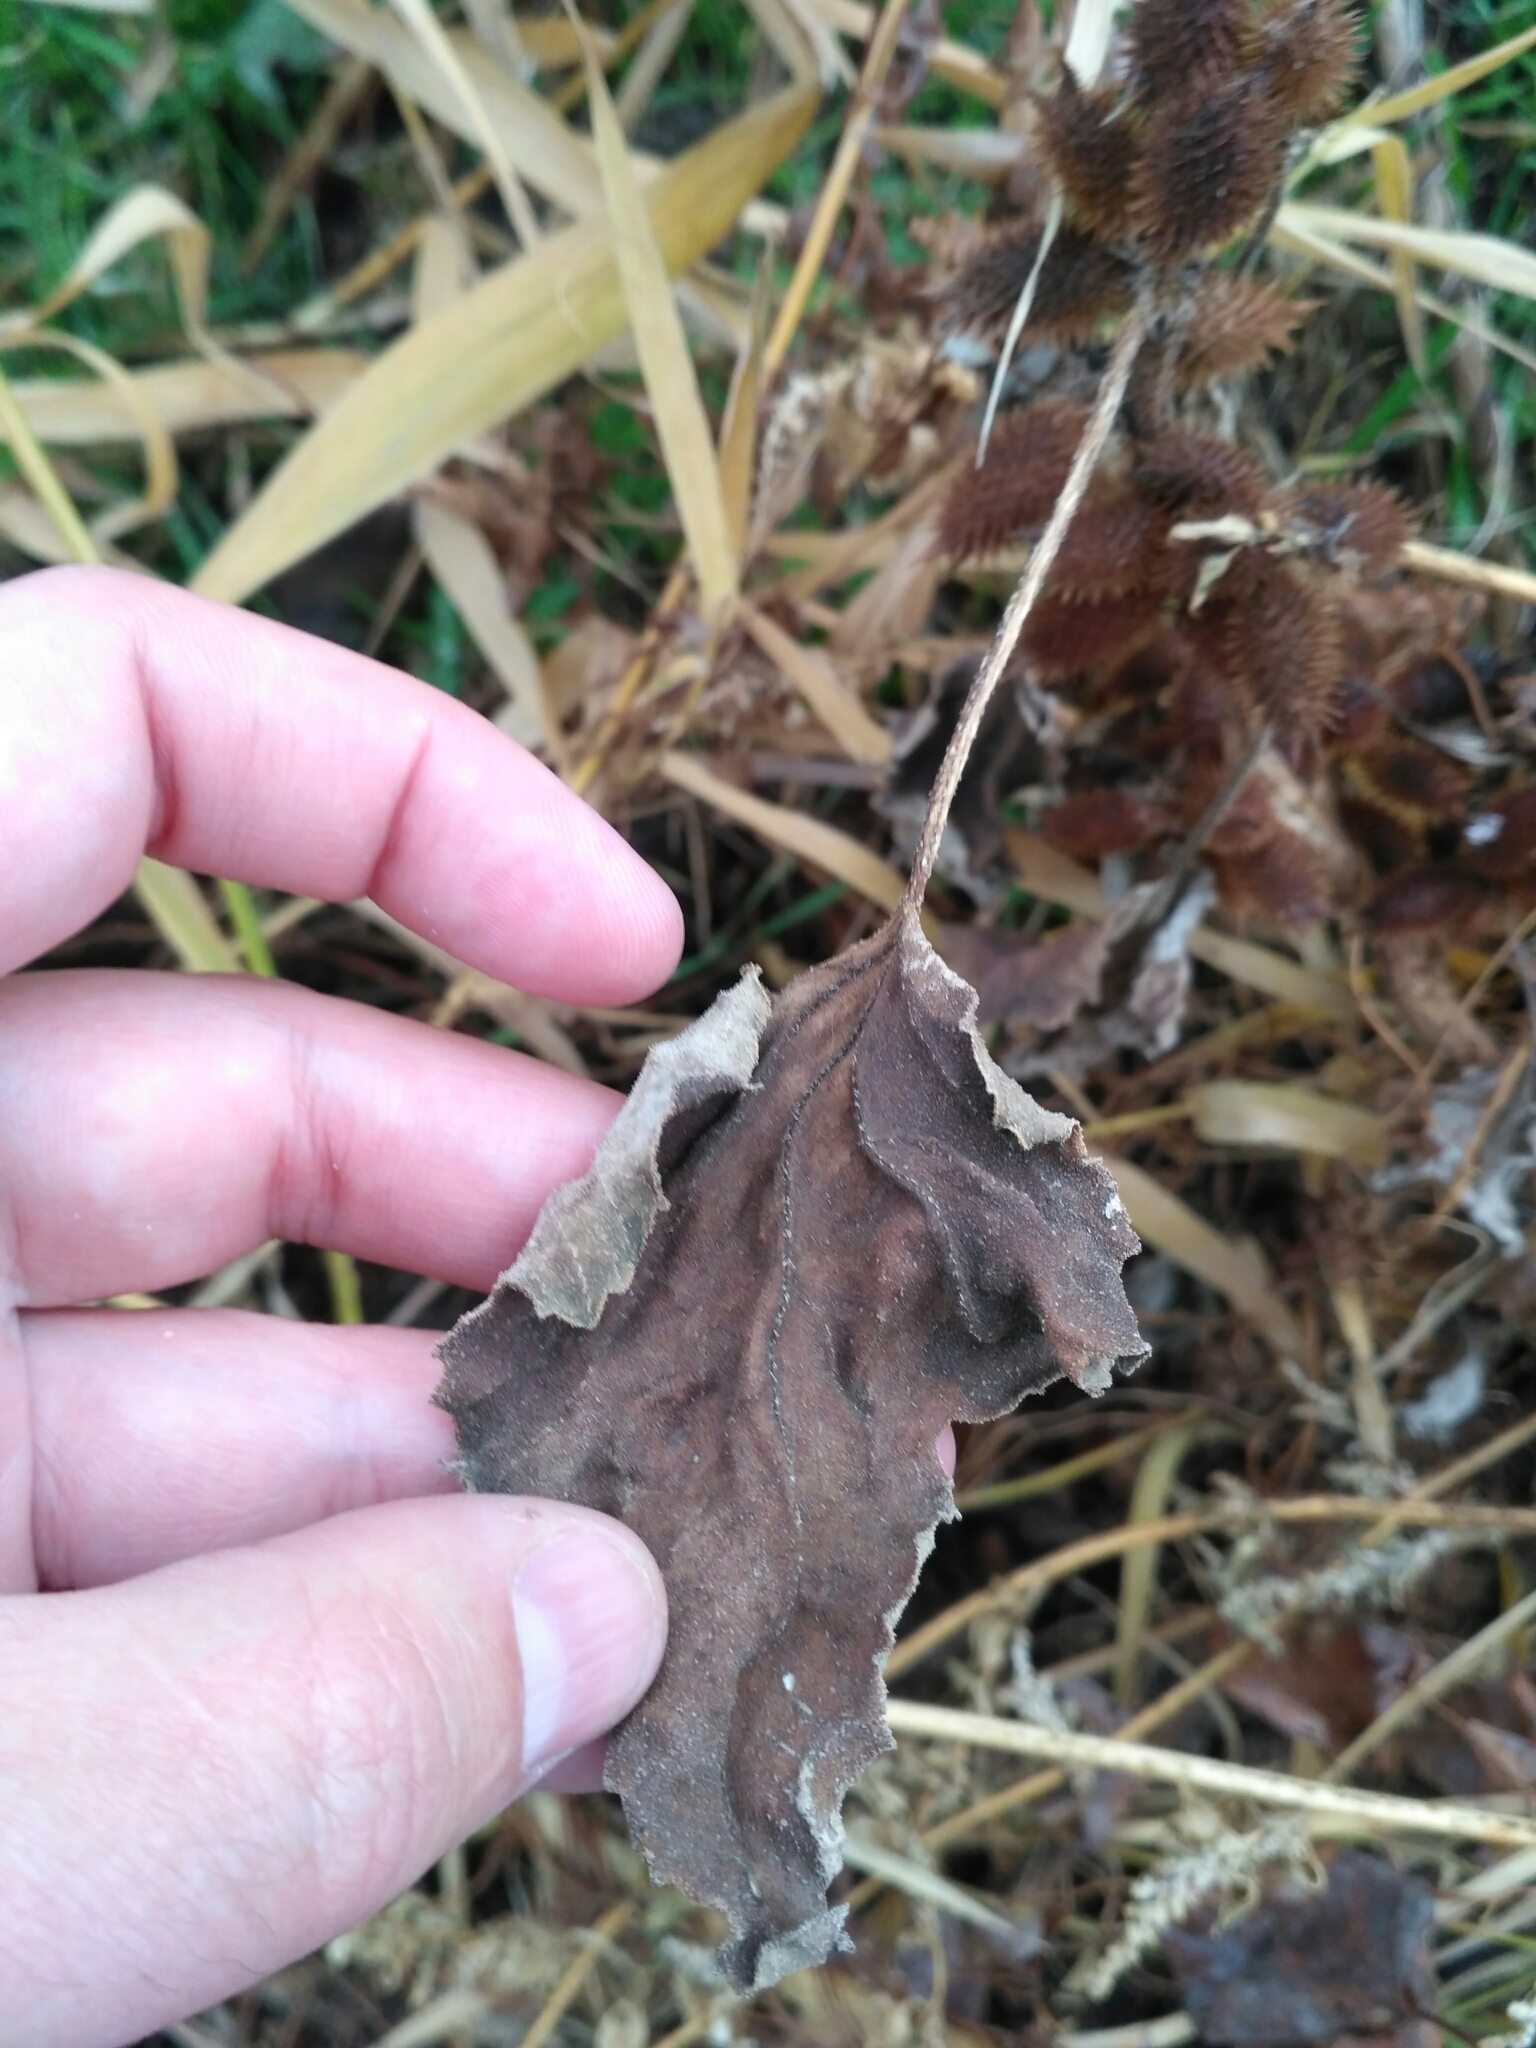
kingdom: Plantae
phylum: Tracheophyta
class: Magnoliopsida
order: Asterales
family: Asteraceae
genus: Xanthium
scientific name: Xanthium orientale
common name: Californian burr
